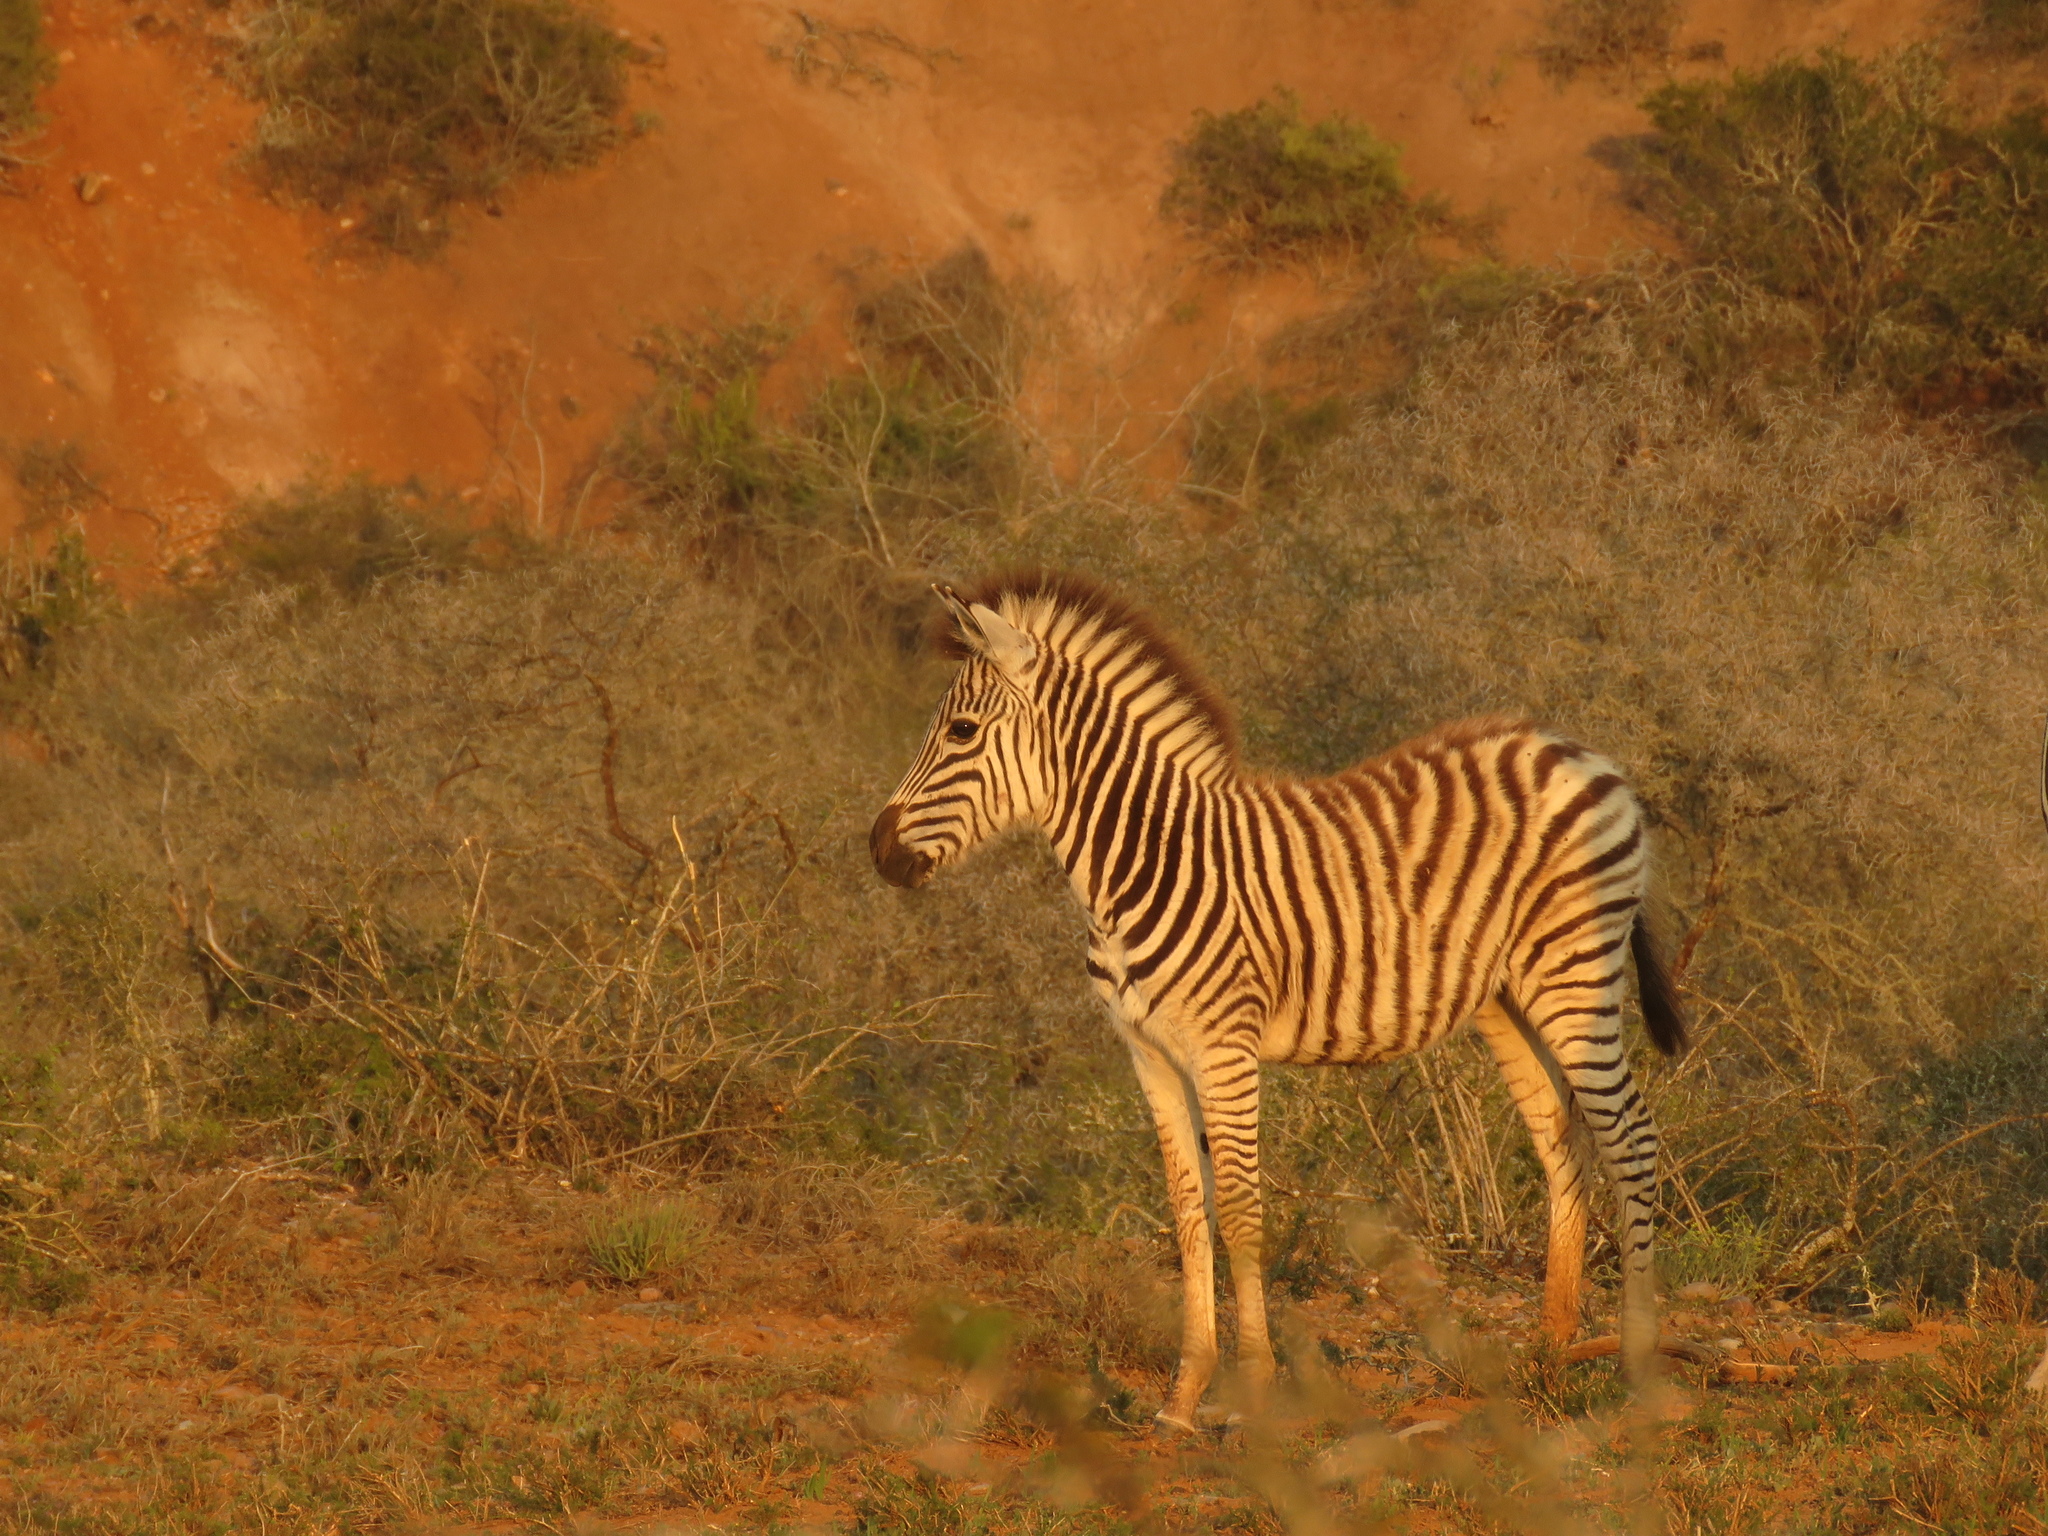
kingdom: Animalia
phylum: Chordata
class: Mammalia
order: Perissodactyla
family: Equidae
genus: Equus
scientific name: Equus quagga
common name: Plains zebra
